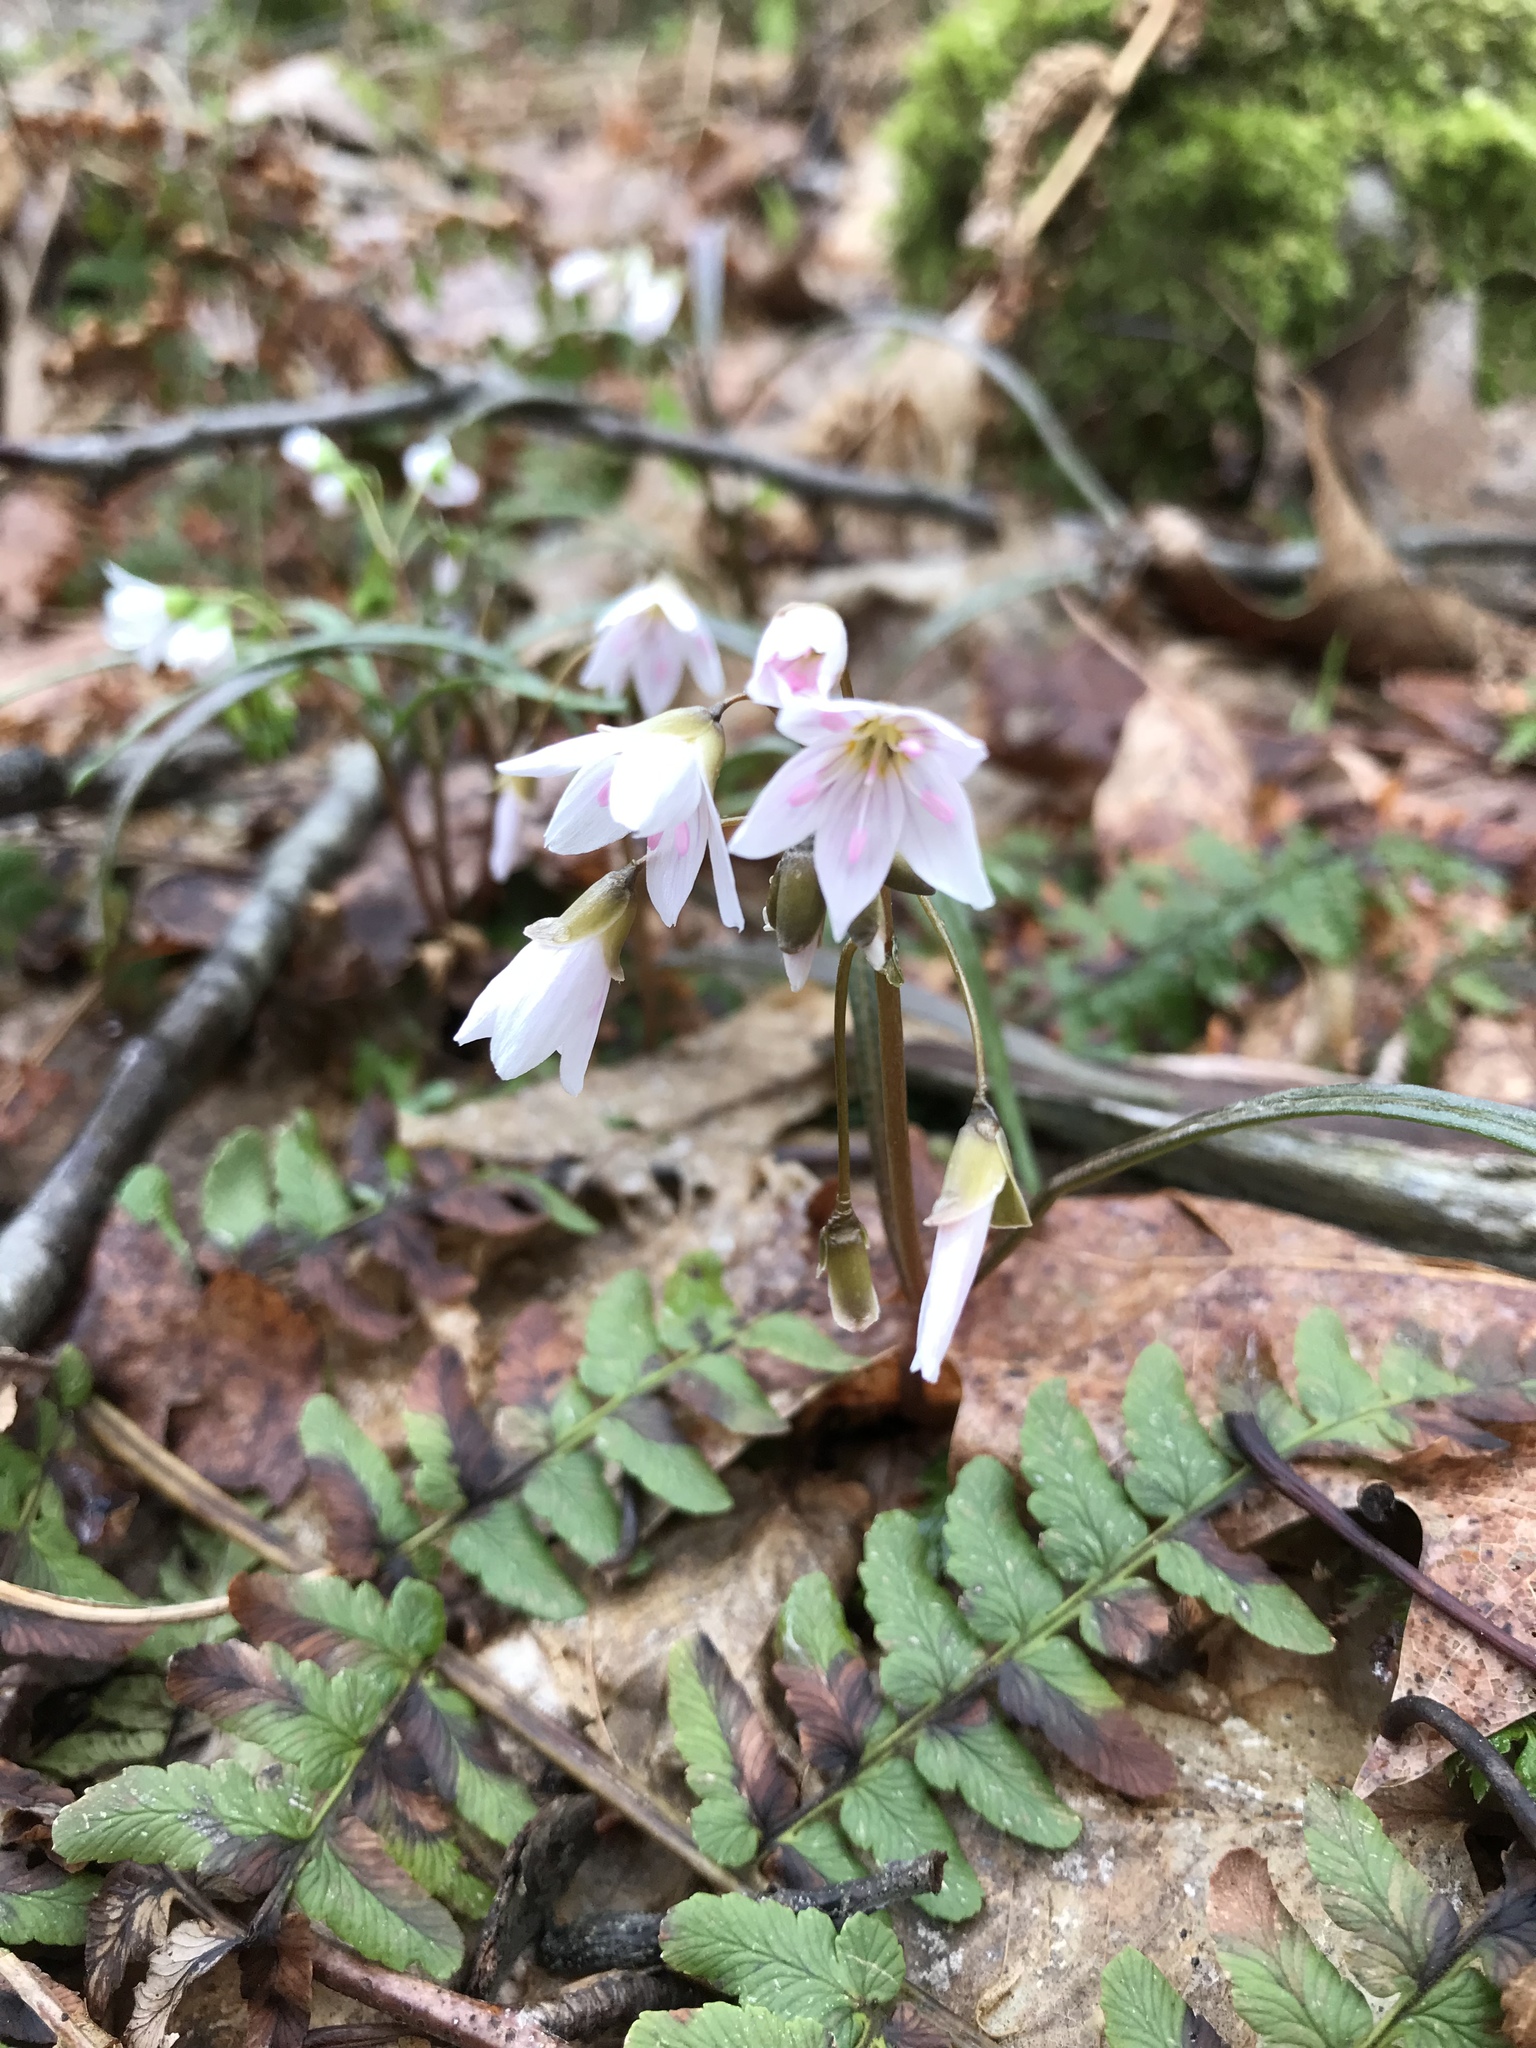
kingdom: Plantae
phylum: Tracheophyta
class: Magnoliopsida
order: Caryophyllales
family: Montiaceae
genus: Claytonia
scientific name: Claytonia virginica
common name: Virginia springbeauty
